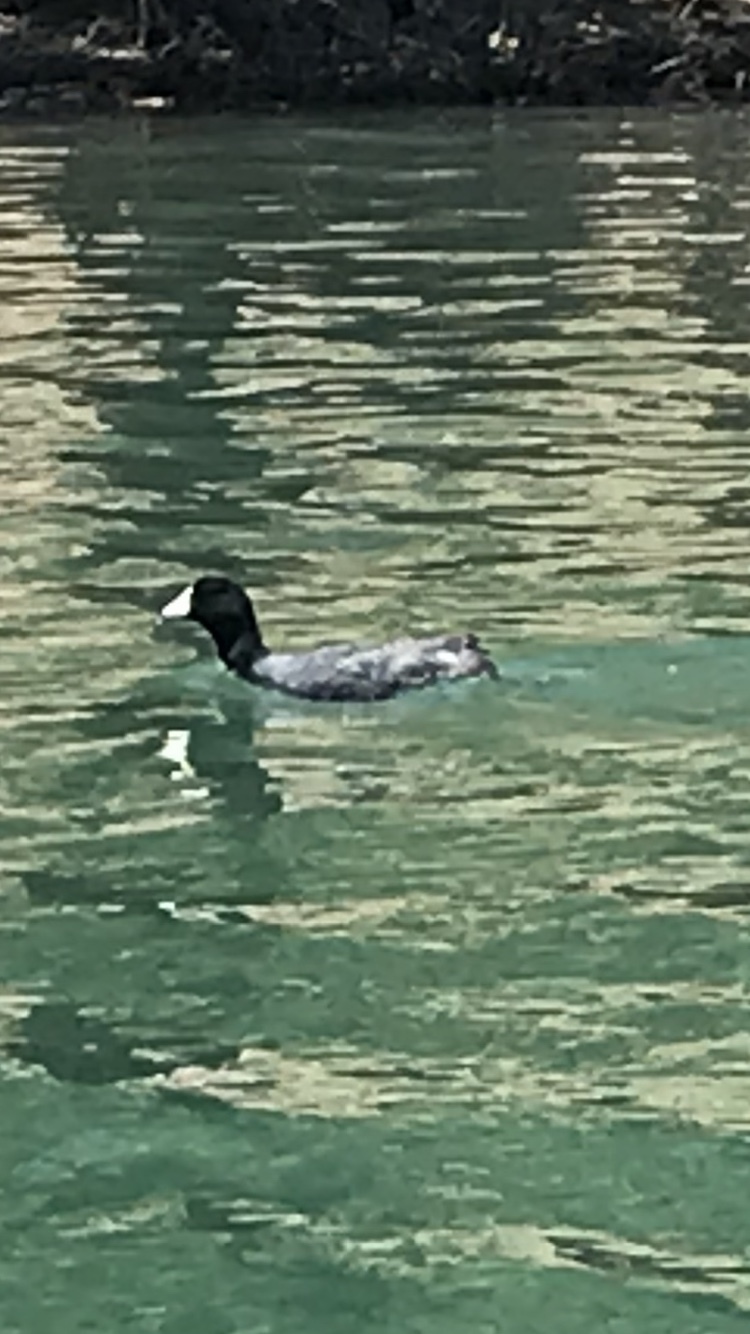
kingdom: Animalia
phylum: Chordata
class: Aves
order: Gruiformes
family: Rallidae
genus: Fulica
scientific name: Fulica americana
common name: American coot
